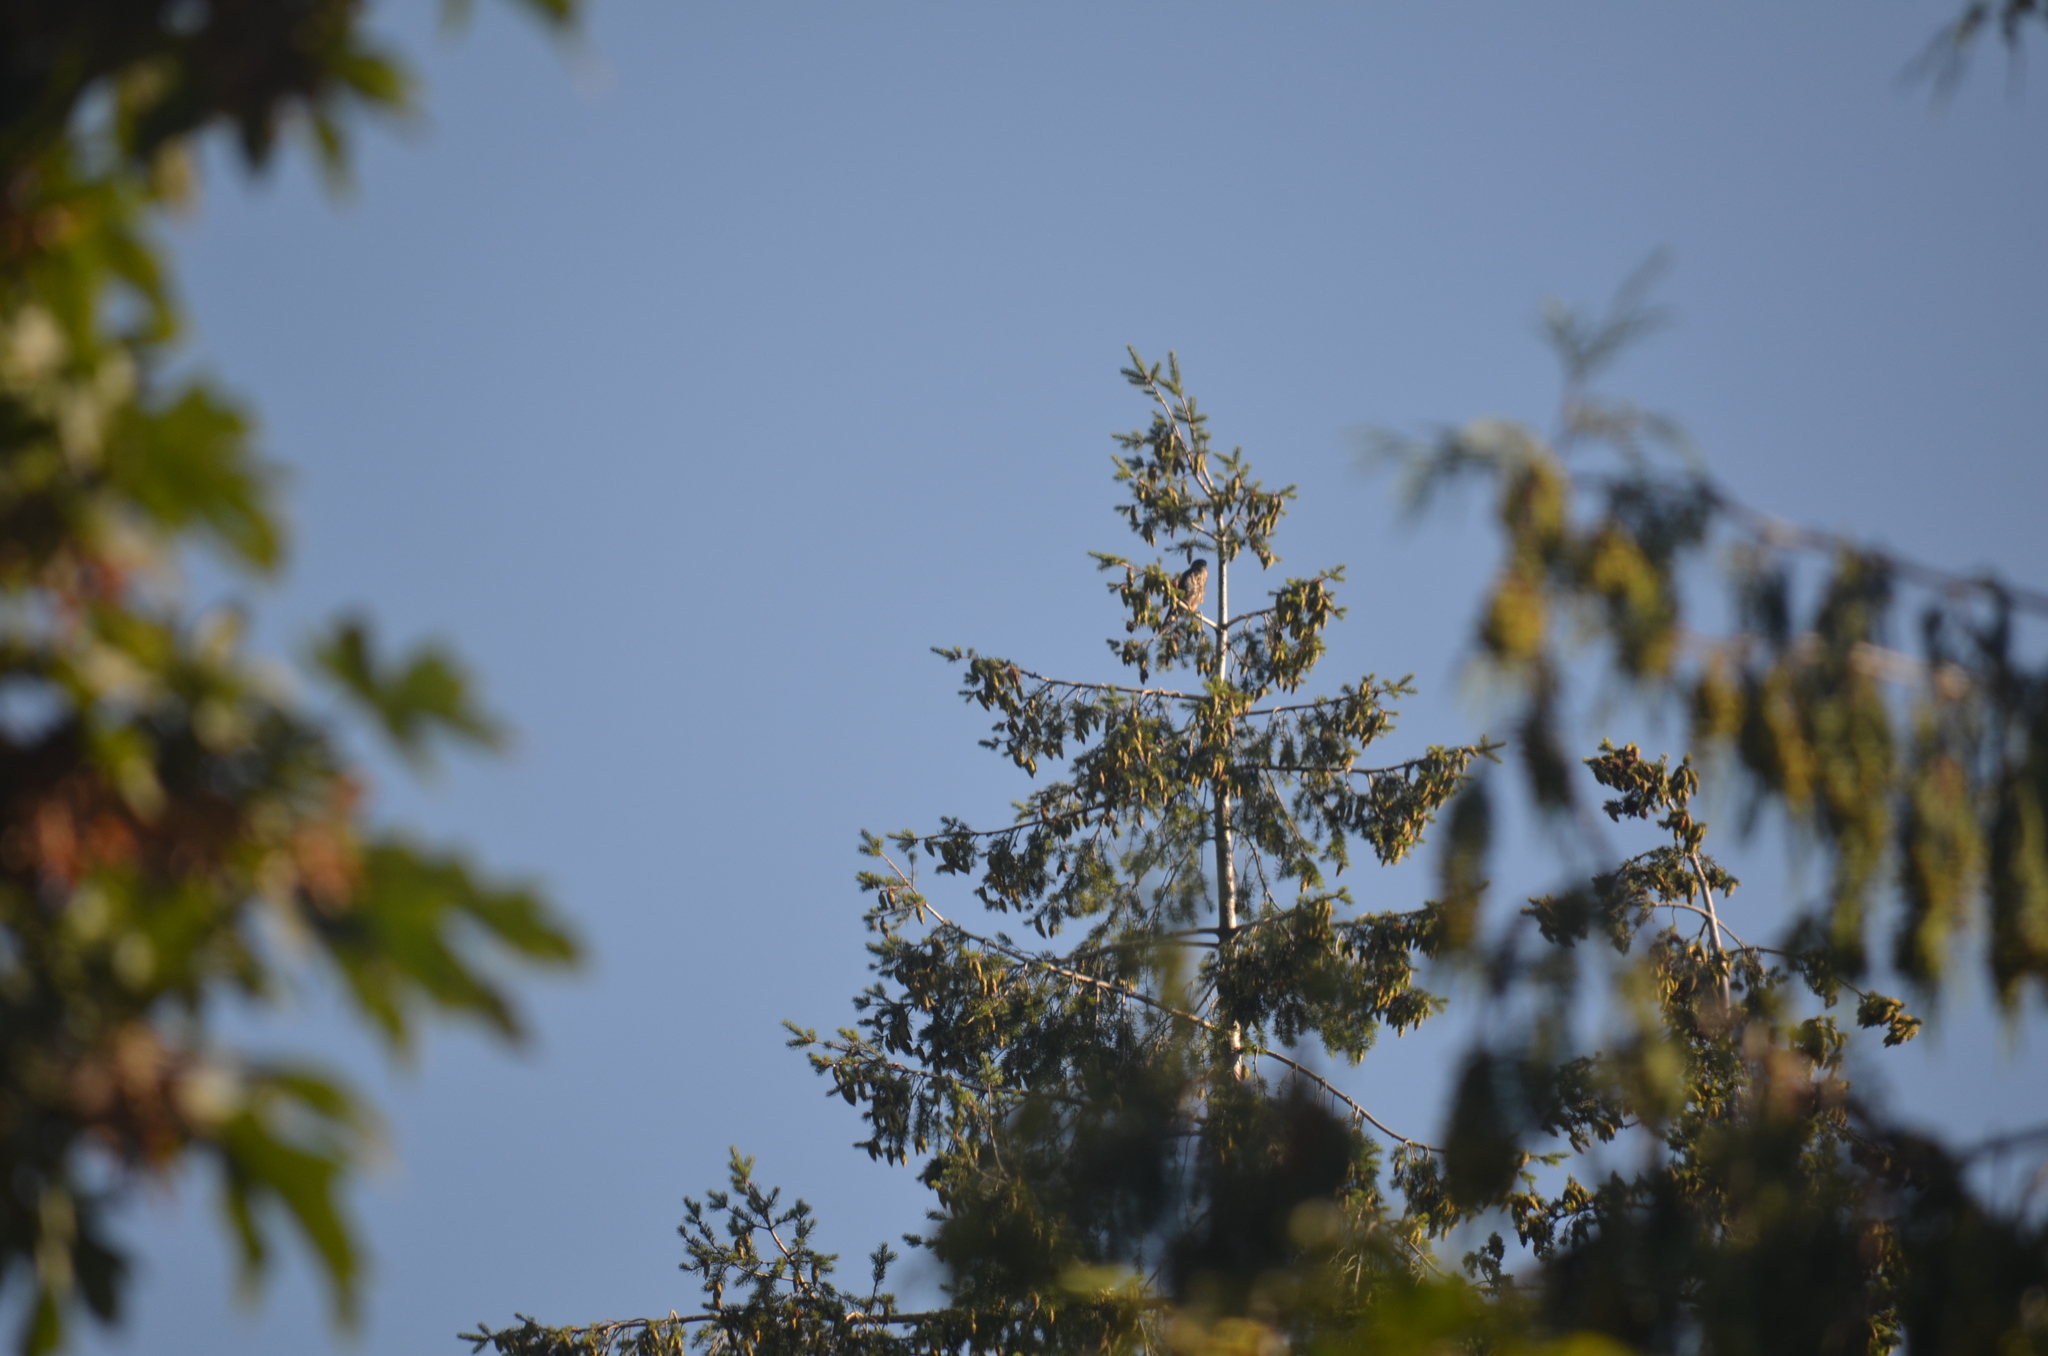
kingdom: Animalia
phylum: Chordata
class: Aves
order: Falconiformes
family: Falconidae
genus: Falco
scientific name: Falco columbarius
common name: Merlin
